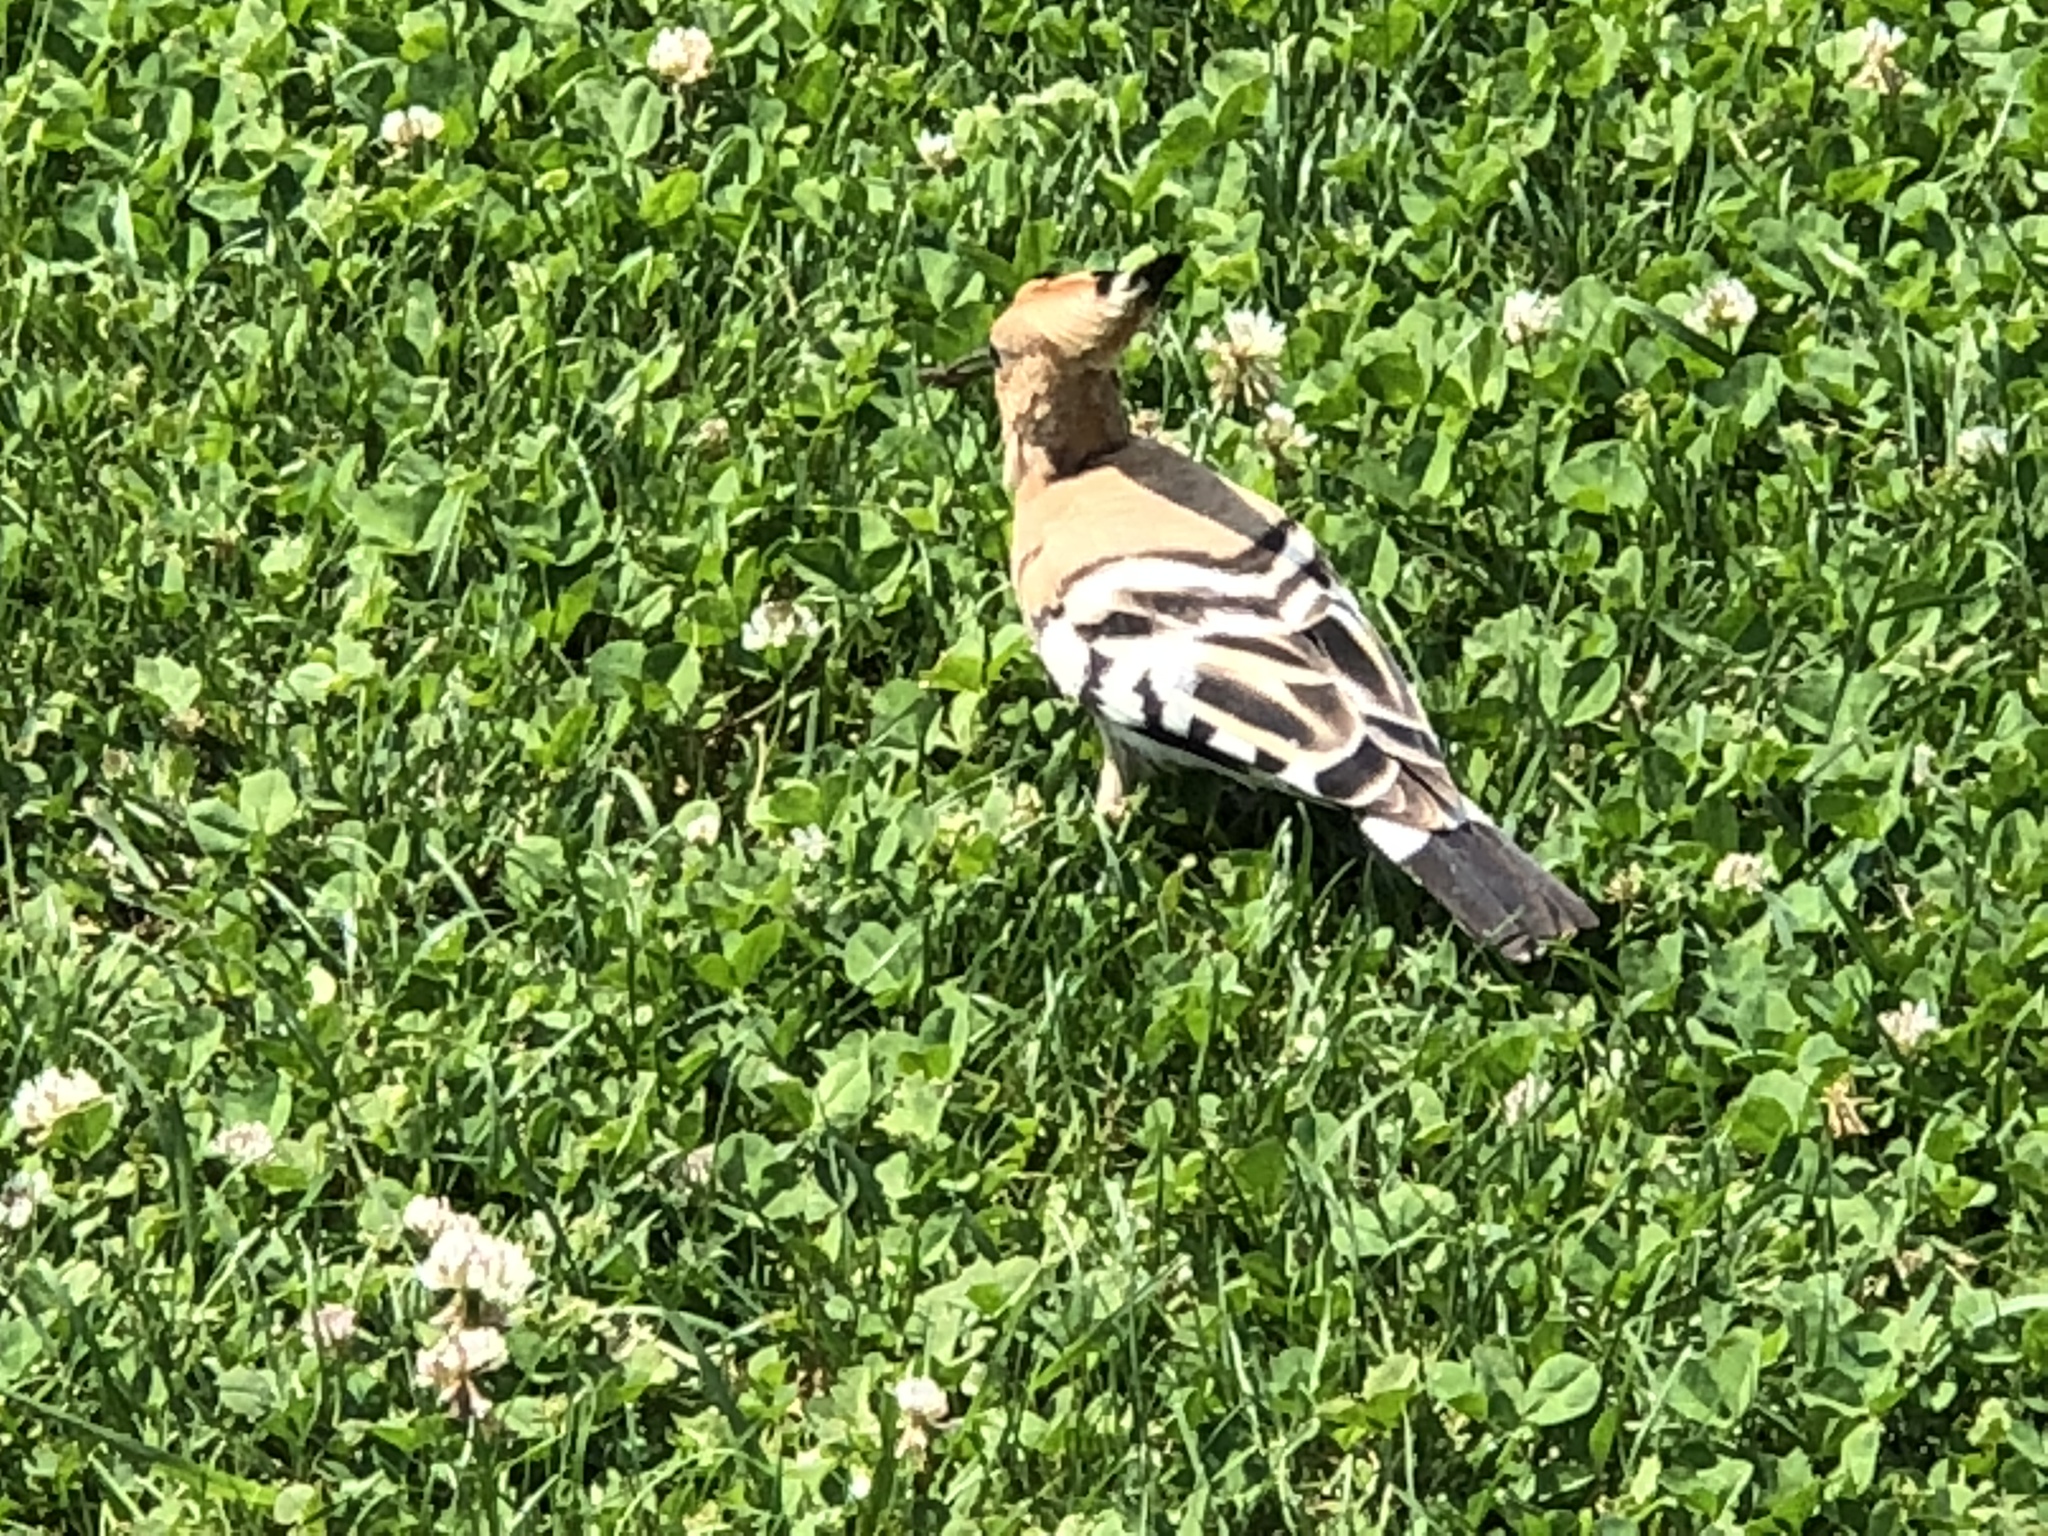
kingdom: Animalia
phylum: Chordata
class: Aves
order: Bucerotiformes
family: Upupidae
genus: Upupa
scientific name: Upupa epops
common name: Eurasian hoopoe
